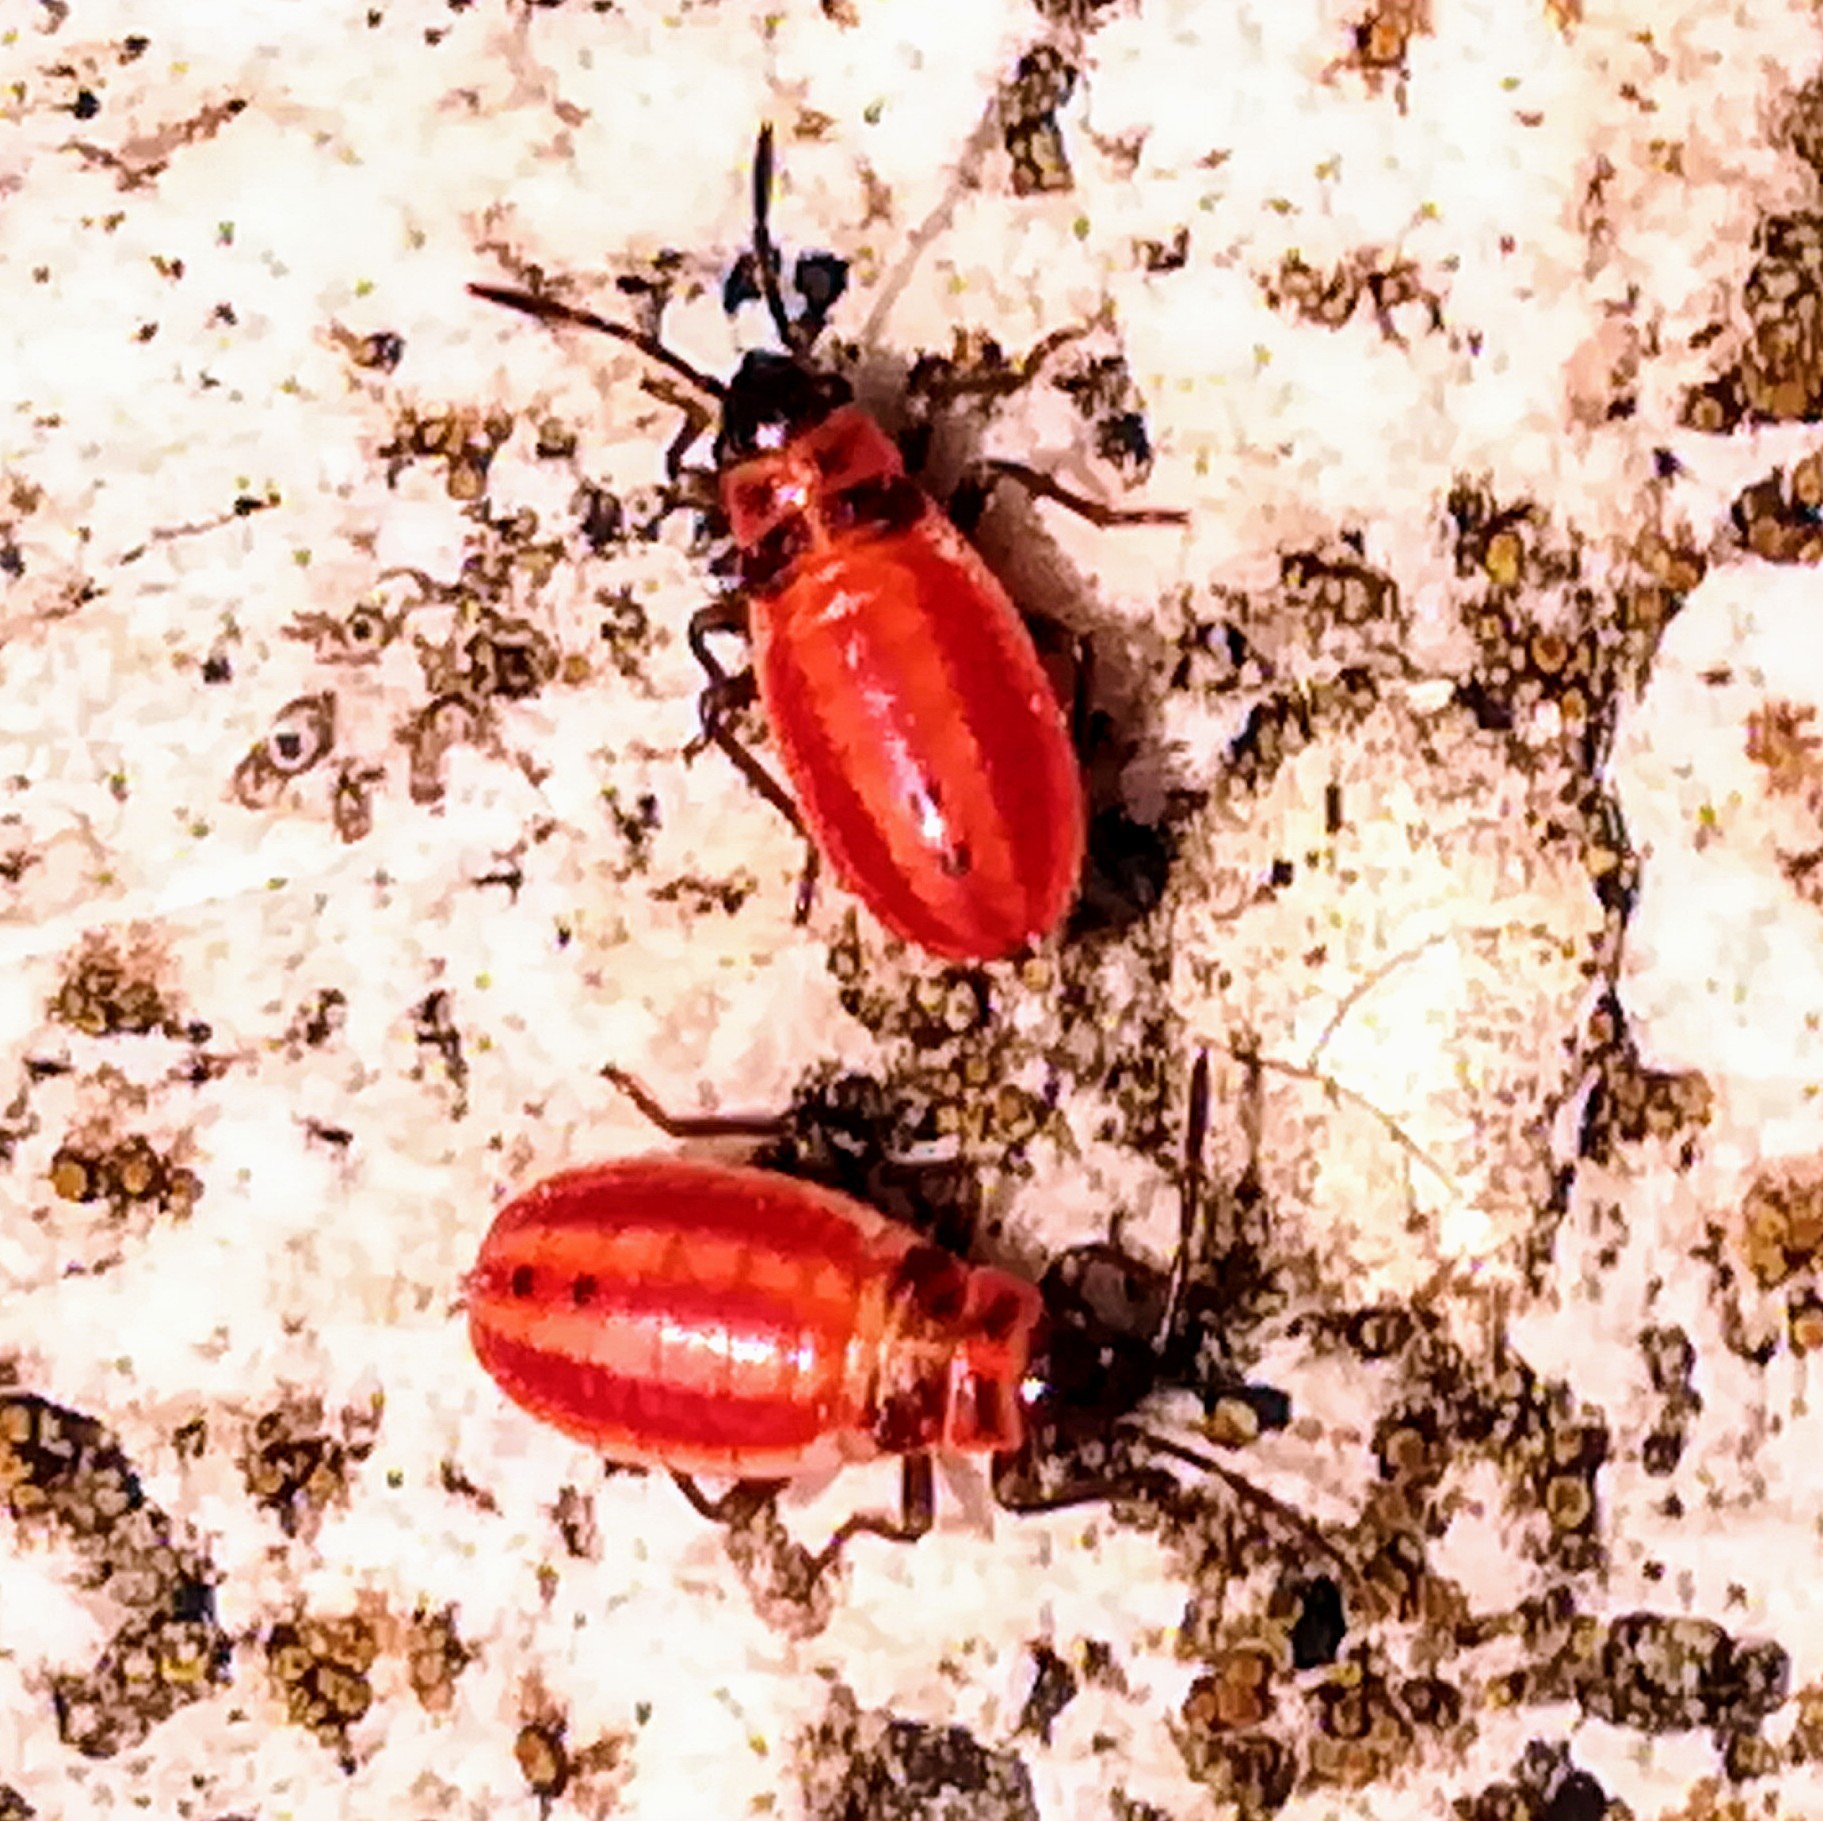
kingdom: Animalia
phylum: Arthropoda
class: Insecta
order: Hemiptera
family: Lygaeidae
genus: Lygaeus
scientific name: Lygaeus creticus
